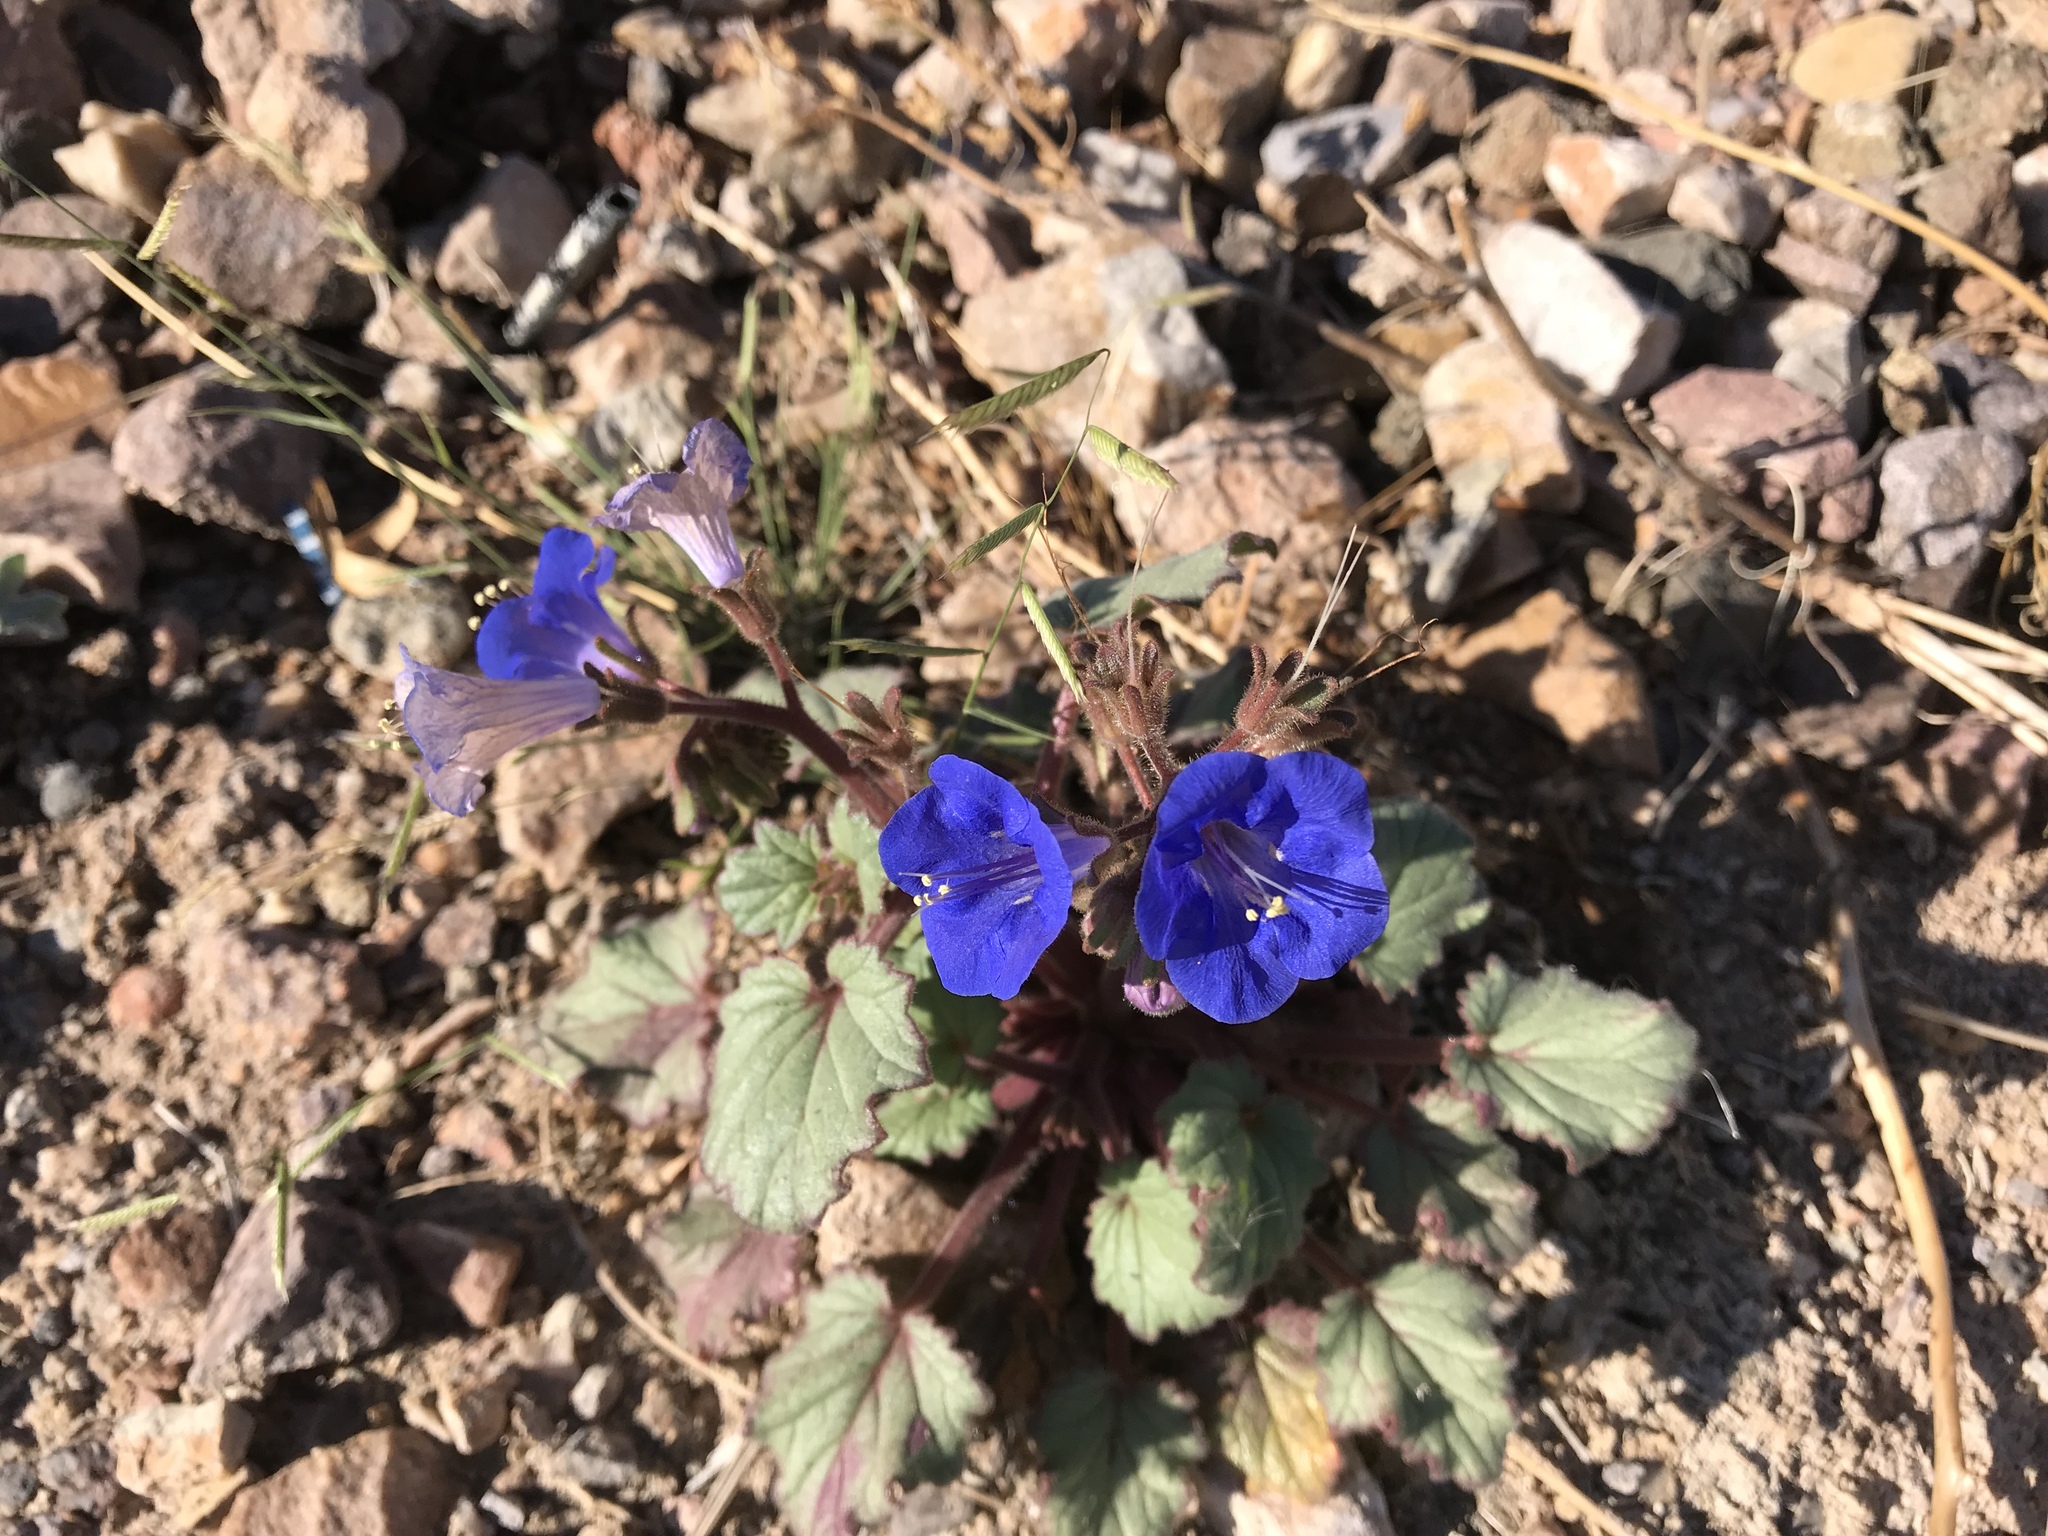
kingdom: Plantae
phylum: Tracheophyta
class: Magnoliopsida
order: Boraginales
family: Hydrophyllaceae
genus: Phacelia
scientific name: Phacelia campanularia
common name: California bluebell
